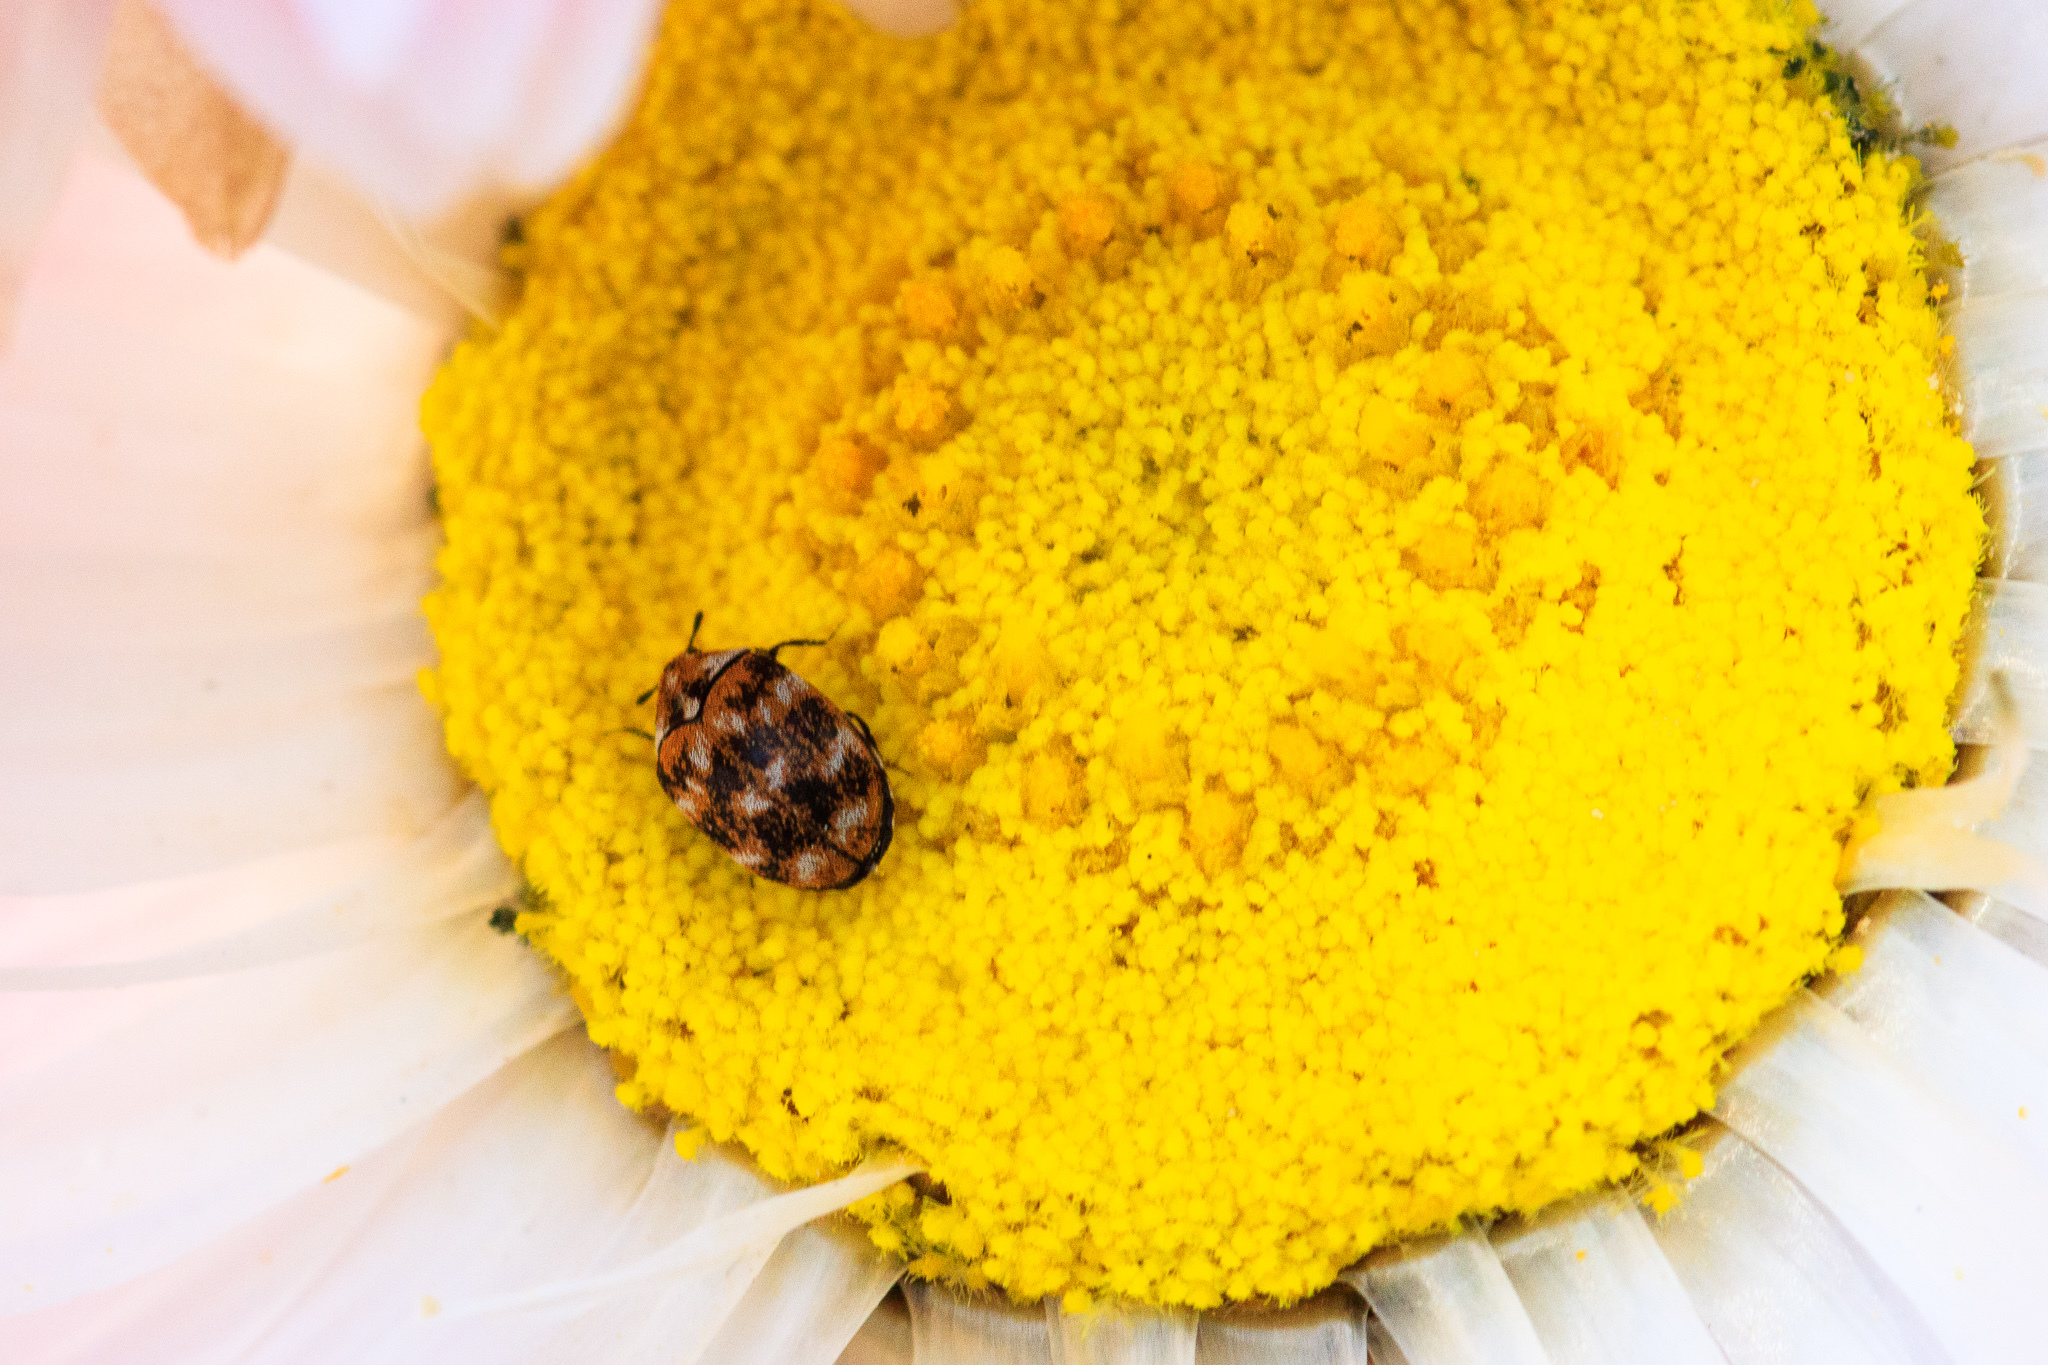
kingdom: Animalia
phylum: Arthropoda
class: Insecta
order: Coleoptera
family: Dermestidae
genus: Anthrenus
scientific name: Anthrenus verbasci
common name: Varied carpet beetle
